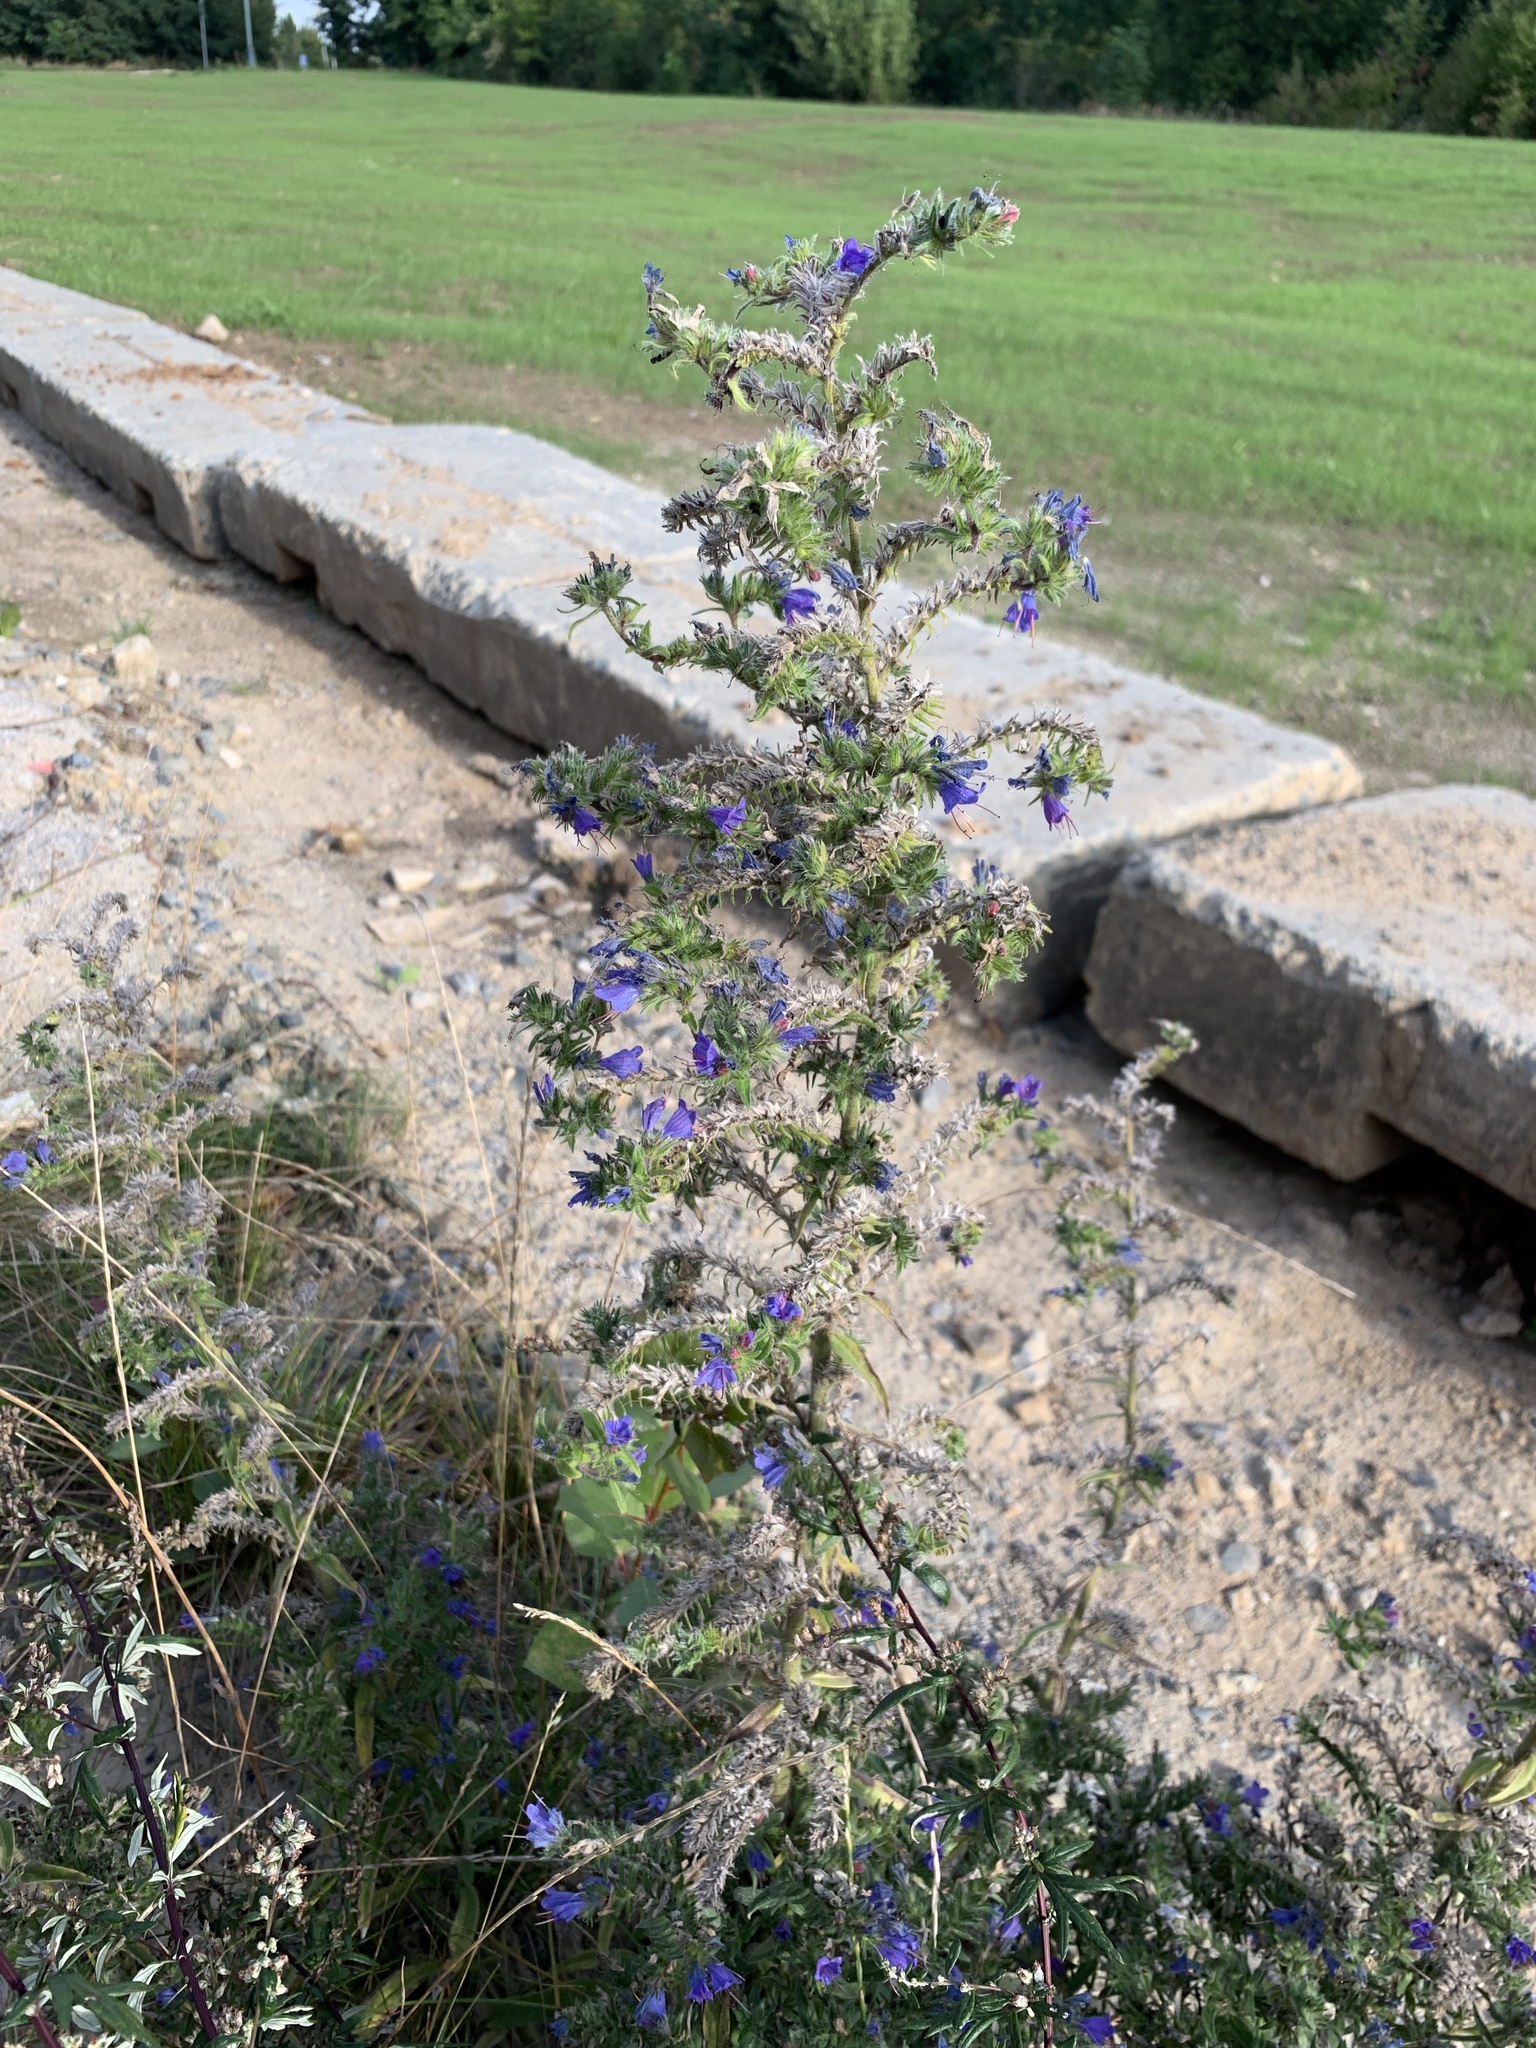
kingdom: Plantae
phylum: Tracheophyta
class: Magnoliopsida
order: Boraginales
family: Boraginaceae
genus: Echium
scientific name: Echium vulgare
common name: Common viper's bugloss
